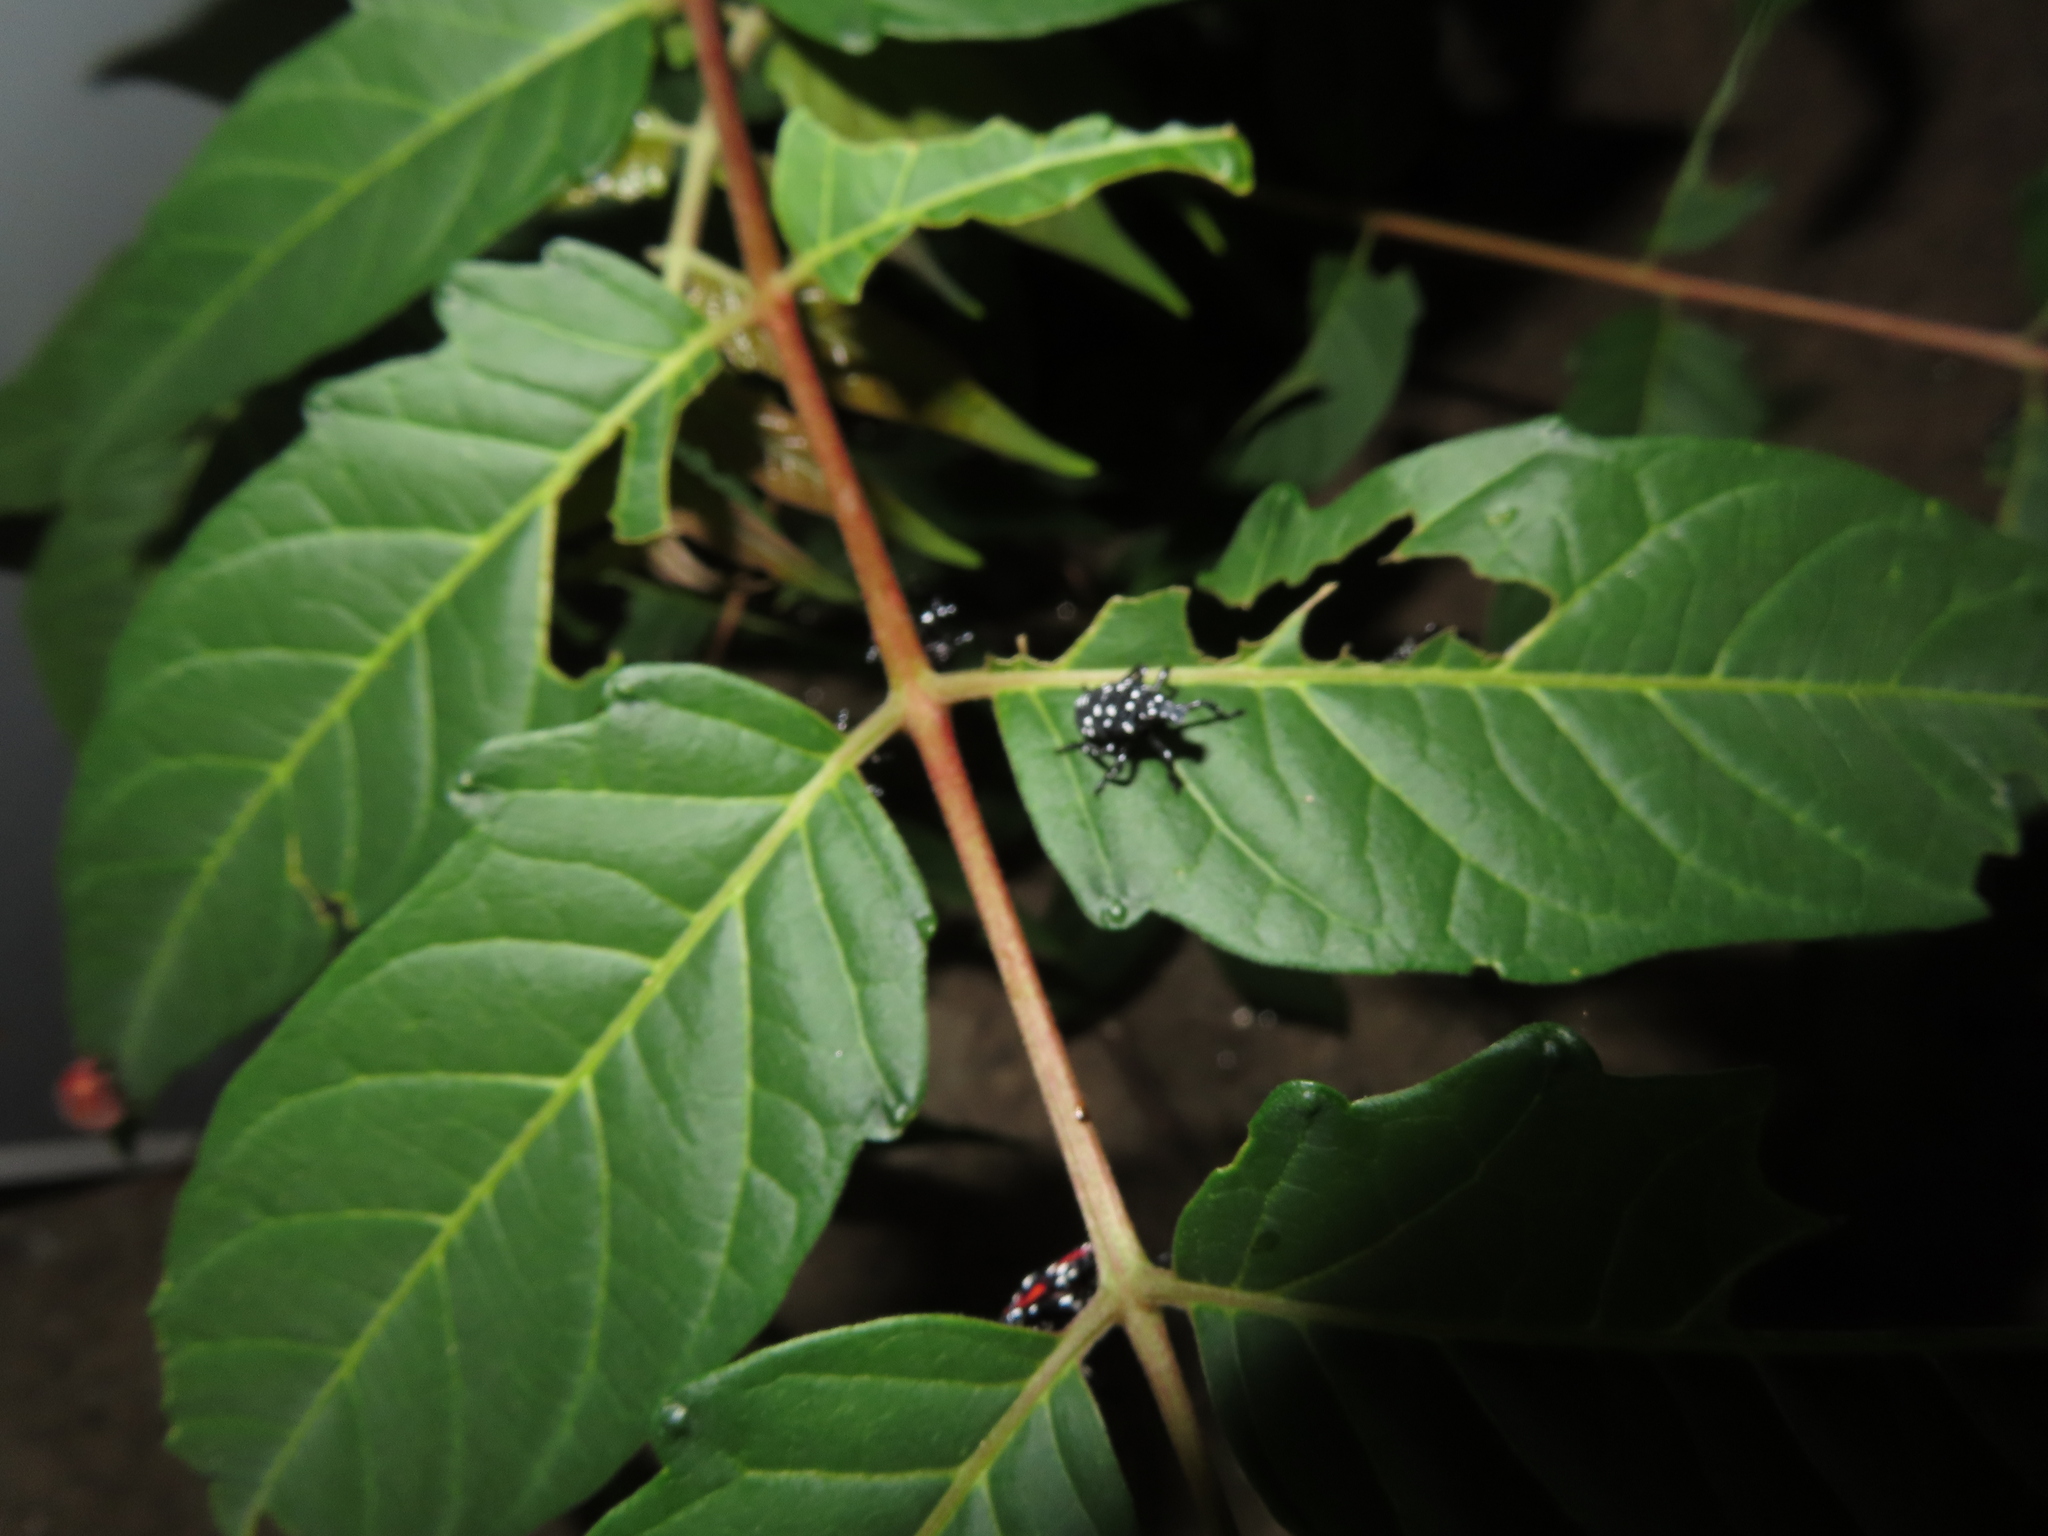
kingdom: Animalia
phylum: Arthropoda
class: Insecta
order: Hemiptera
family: Fulgoridae
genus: Lycorma
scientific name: Lycorma delicatula
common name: Spotted lanternfly
